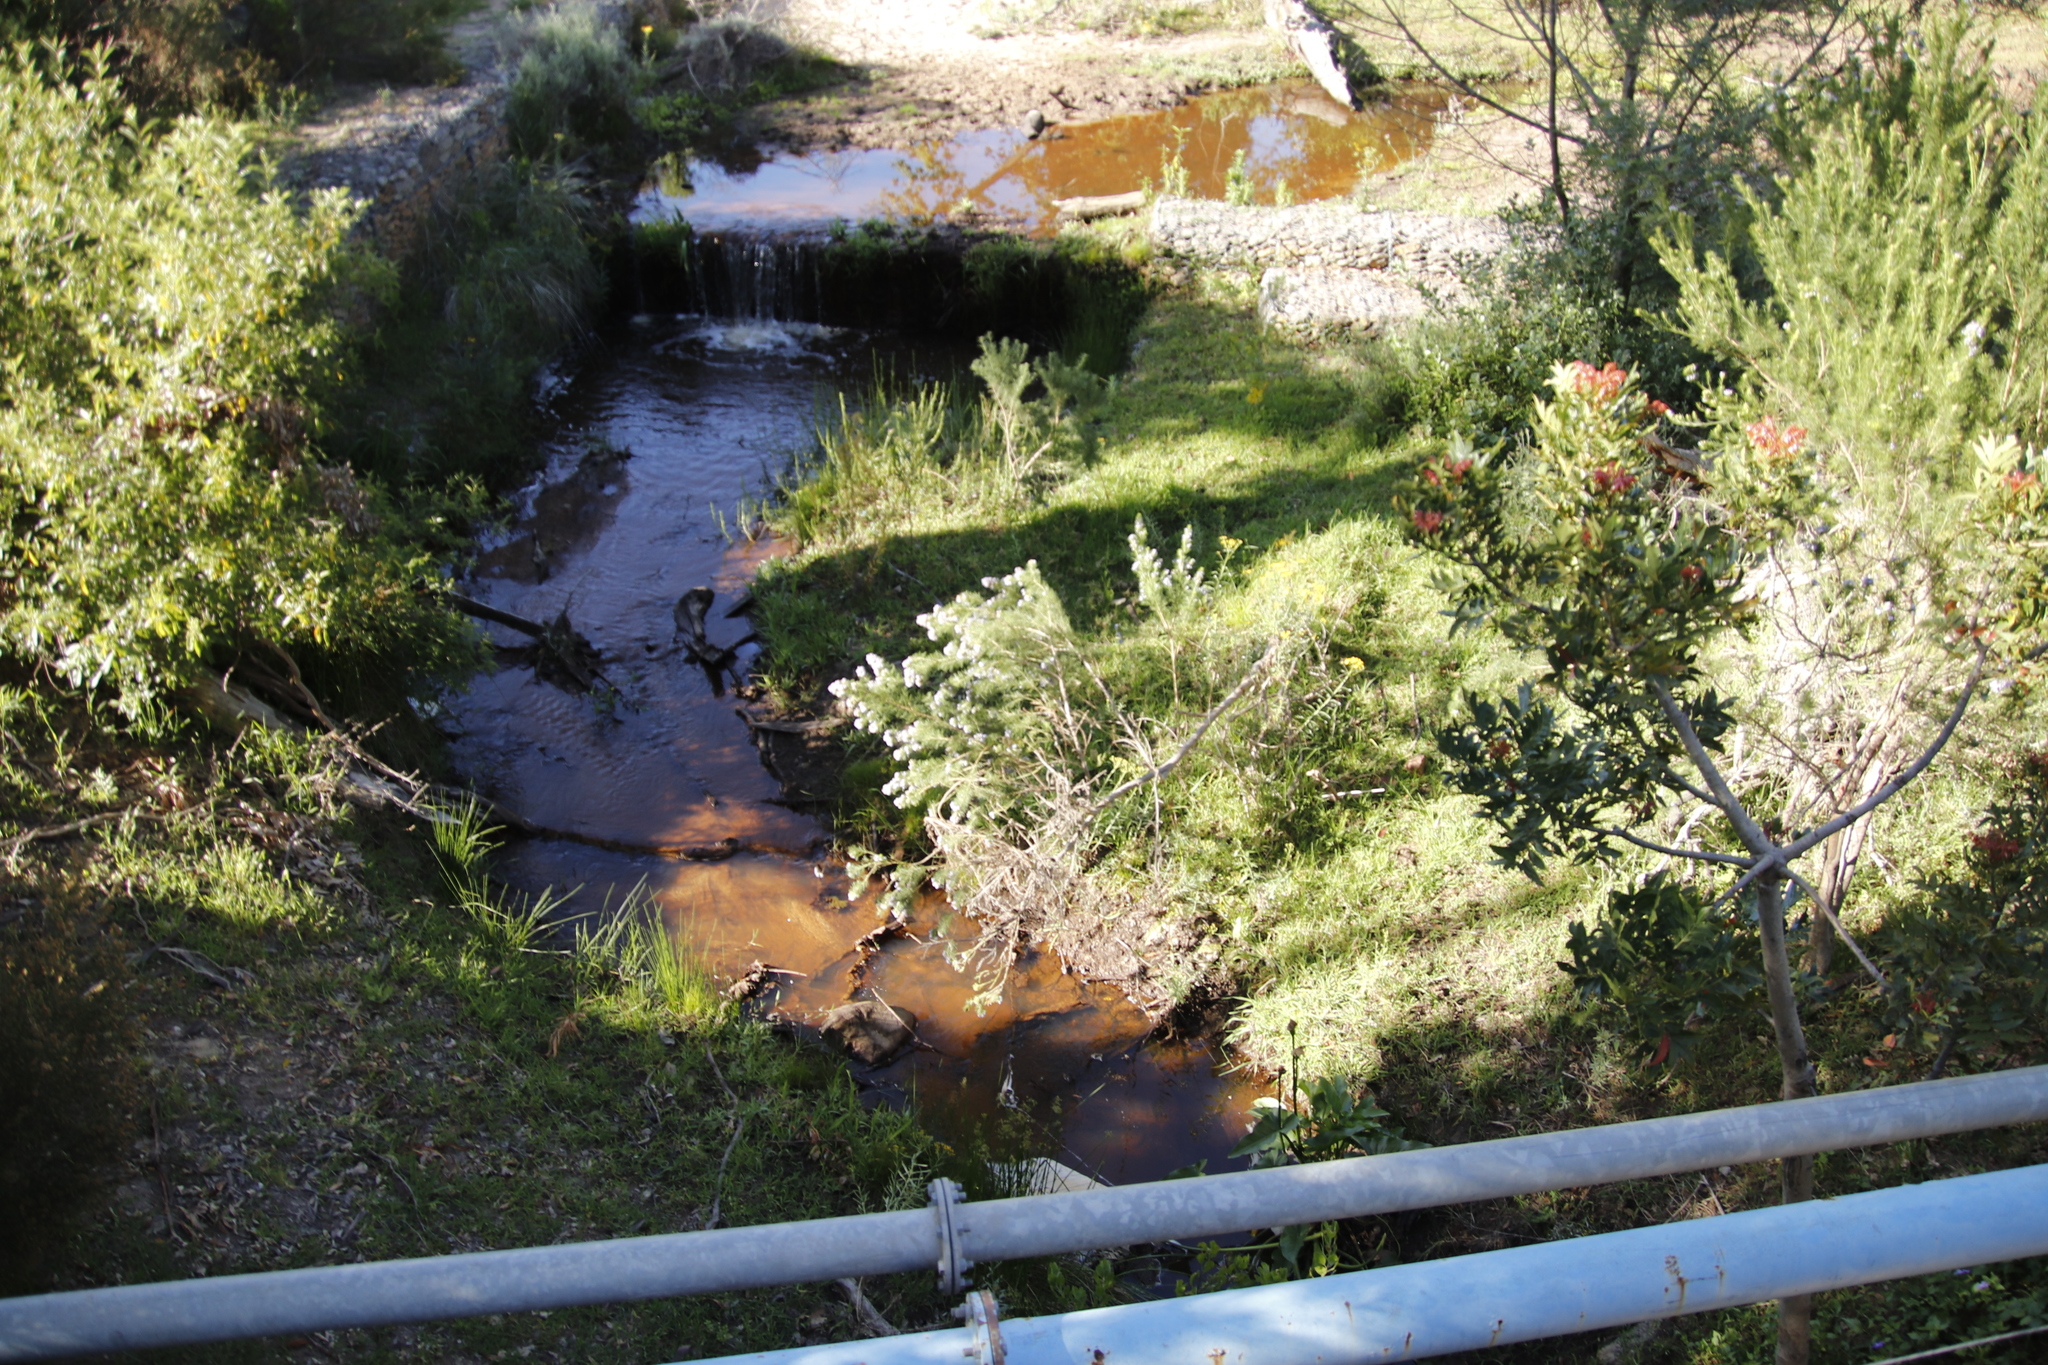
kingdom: Plantae
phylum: Tracheophyta
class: Magnoliopsida
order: Fabales
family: Fabaceae
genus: Psoralea
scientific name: Psoralea pinnata
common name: African scurfpea
